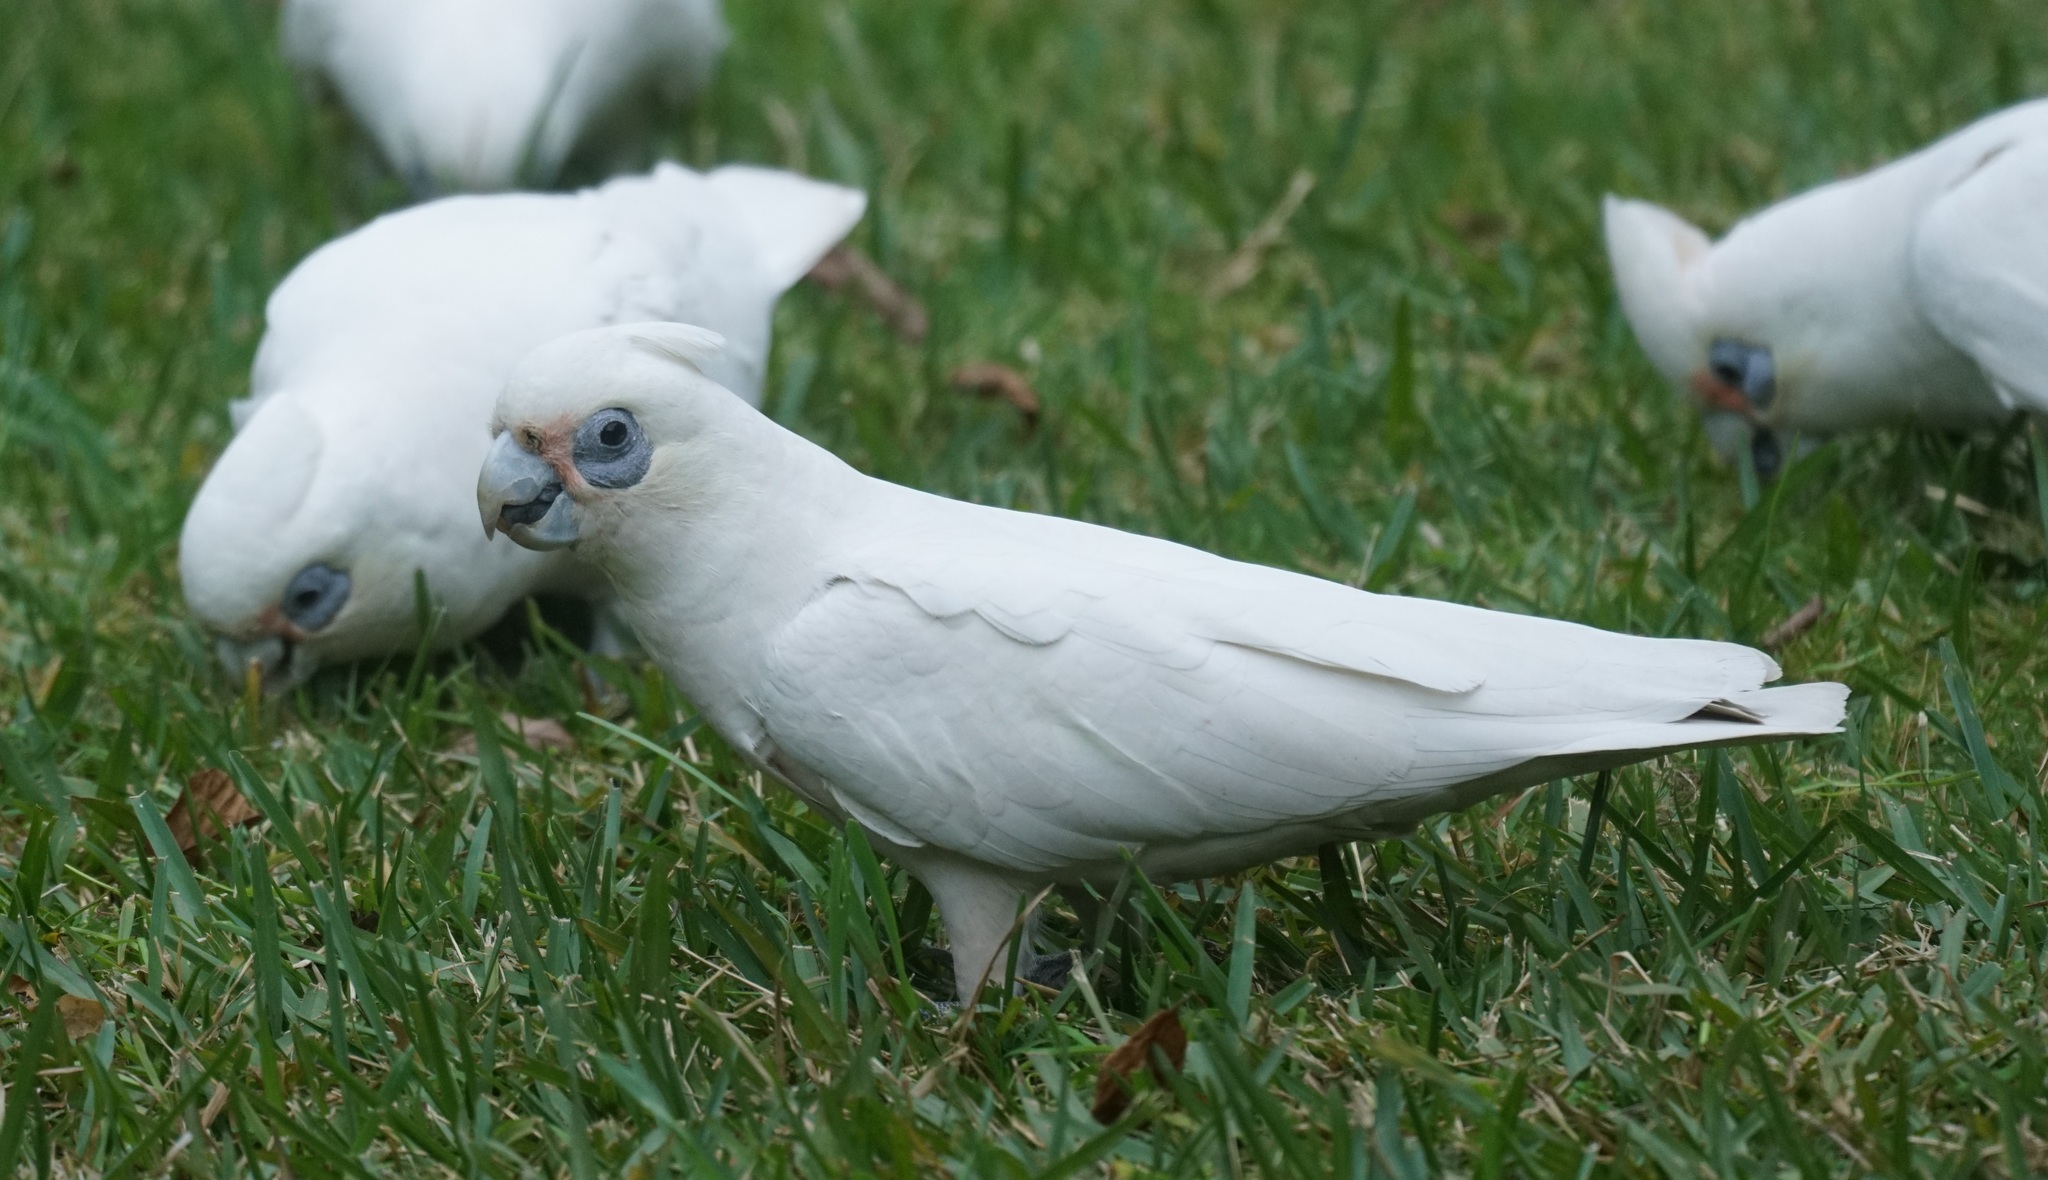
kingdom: Animalia
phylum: Chordata
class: Aves
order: Psittaciformes
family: Psittacidae
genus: Cacatua
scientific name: Cacatua sanguinea
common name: Little corella
